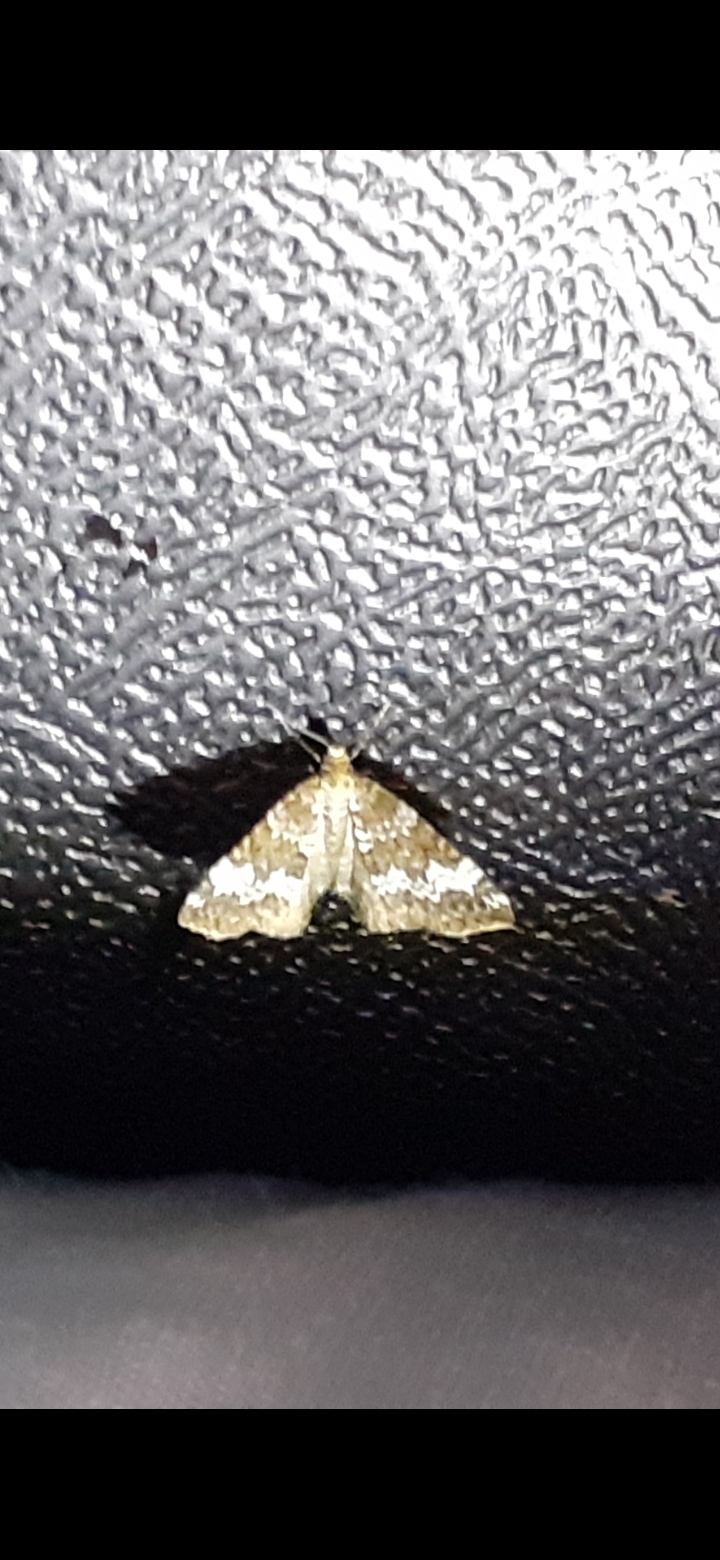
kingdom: Animalia
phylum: Arthropoda
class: Insecta
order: Lepidoptera
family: Geometridae
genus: Perizoma
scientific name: Perizoma alchemillata
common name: Small rivulet
